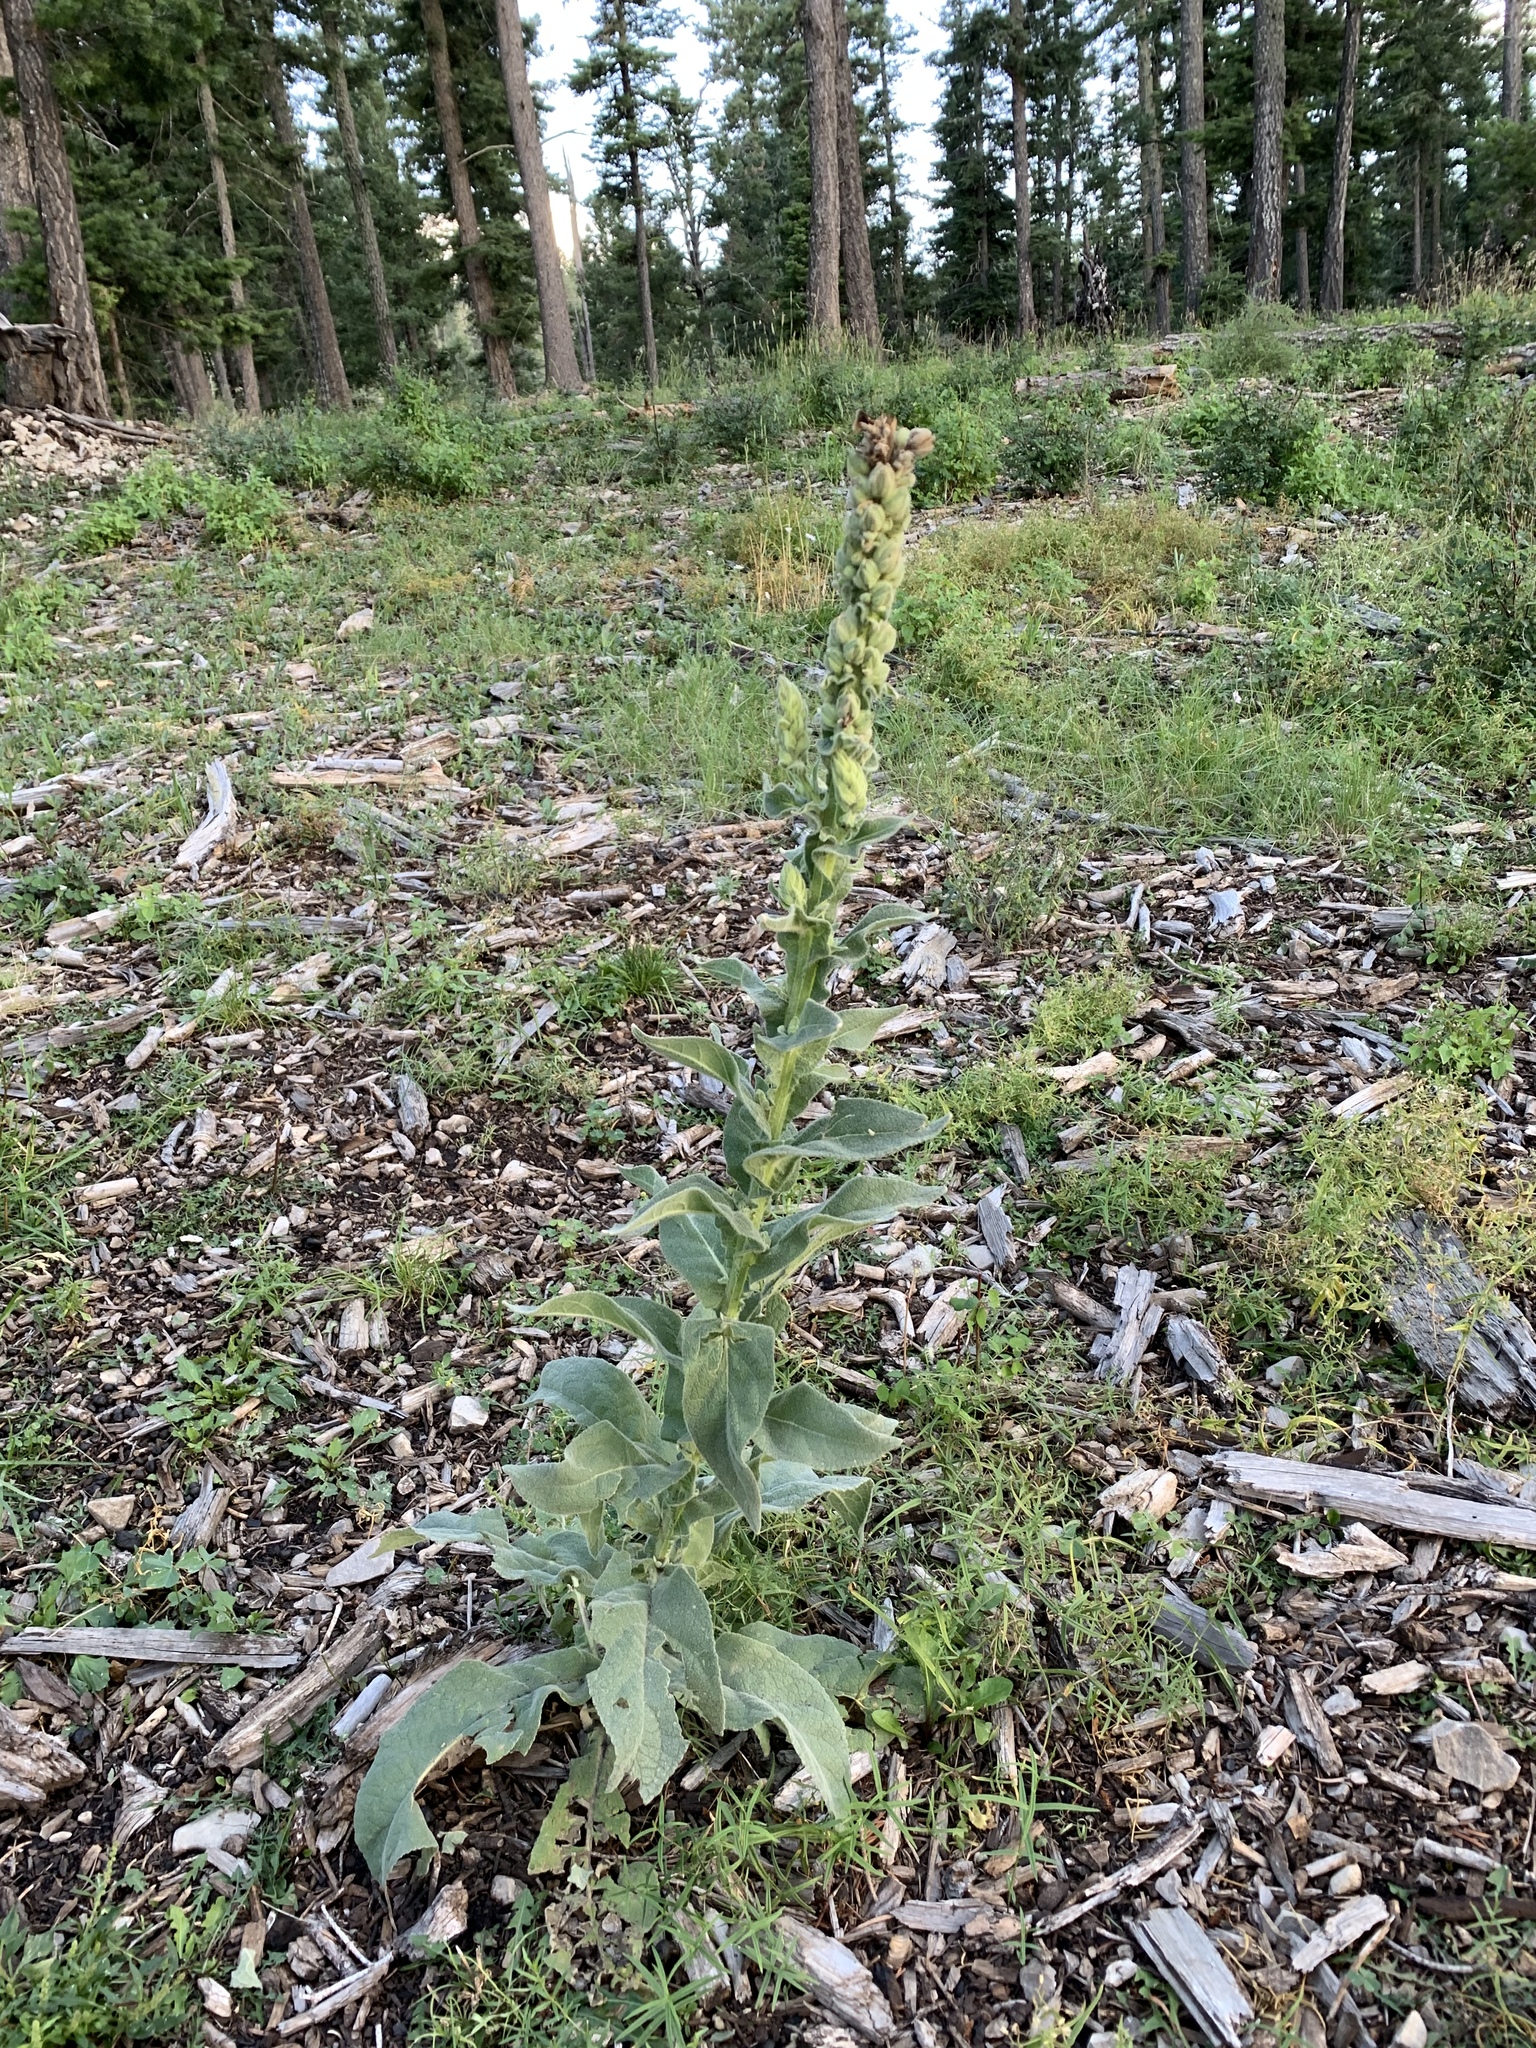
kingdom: Plantae
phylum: Tracheophyta
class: Magnoliopsida
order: Lamiales
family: Scrophulariaceae
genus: Verbascum
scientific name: Verbascum thapsus
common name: Common mullein
